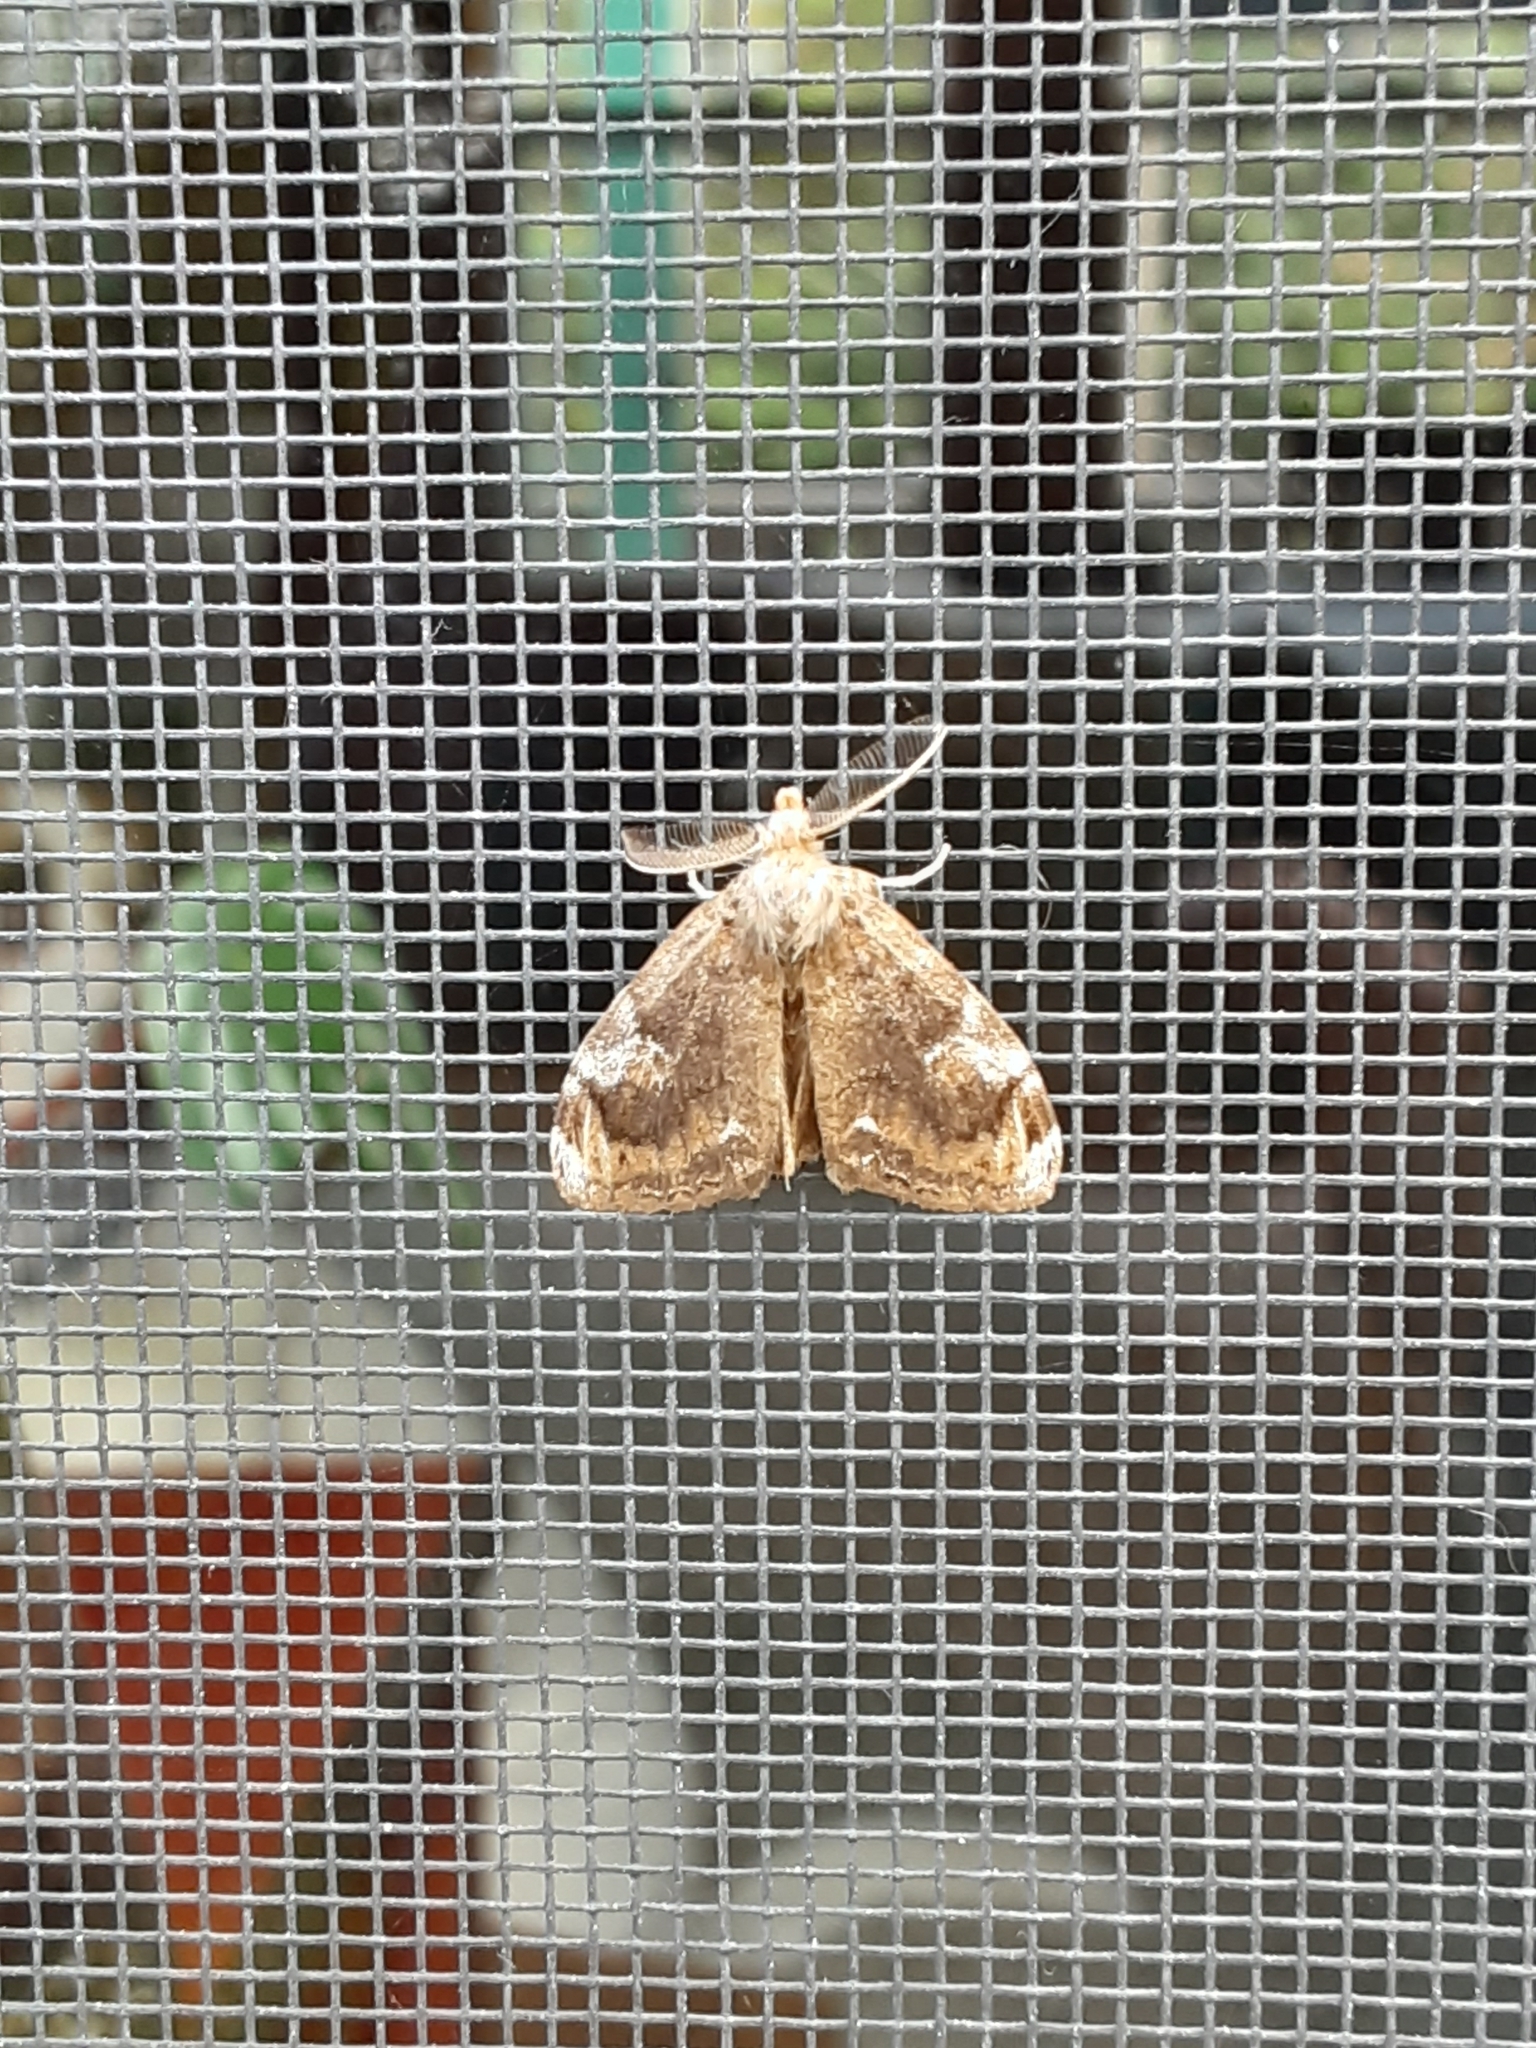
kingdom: Animalia
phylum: Arthropoda
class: Insecta
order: Lepidoptera
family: Erebidae
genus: Orgyia
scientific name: Orgyia leucostigma
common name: White-marked tussock moth
